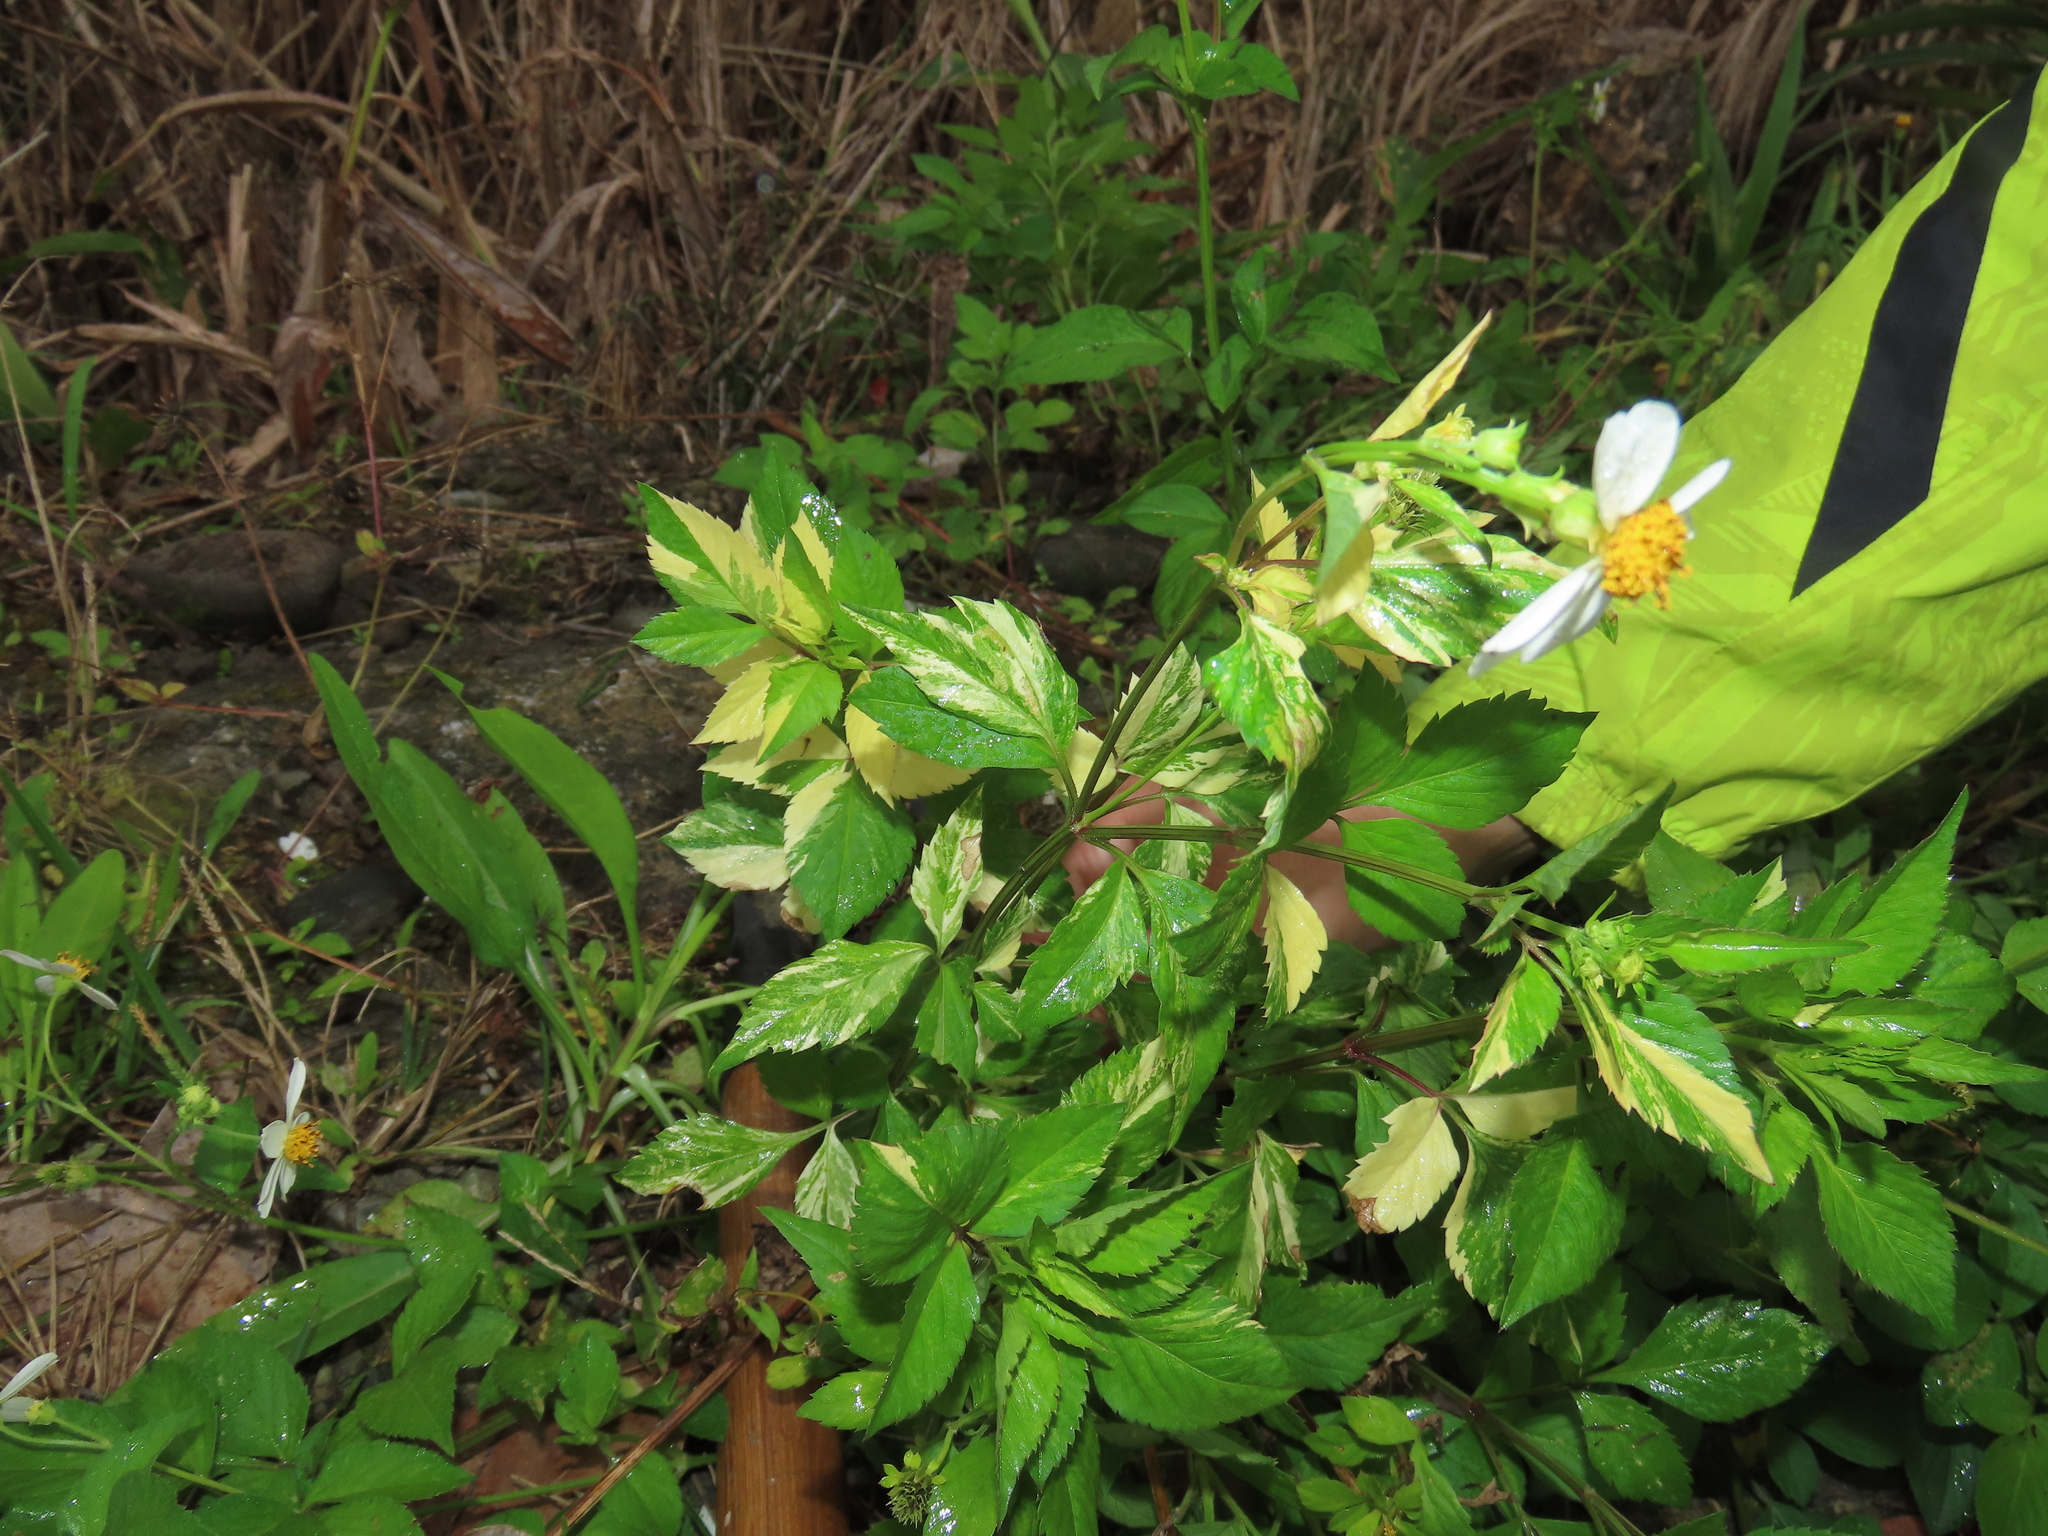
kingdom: Plantae
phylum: Tracheophyta
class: Magnoliopsida
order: Asterales
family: Asteraceae
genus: Bidens
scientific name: Bidens alba
